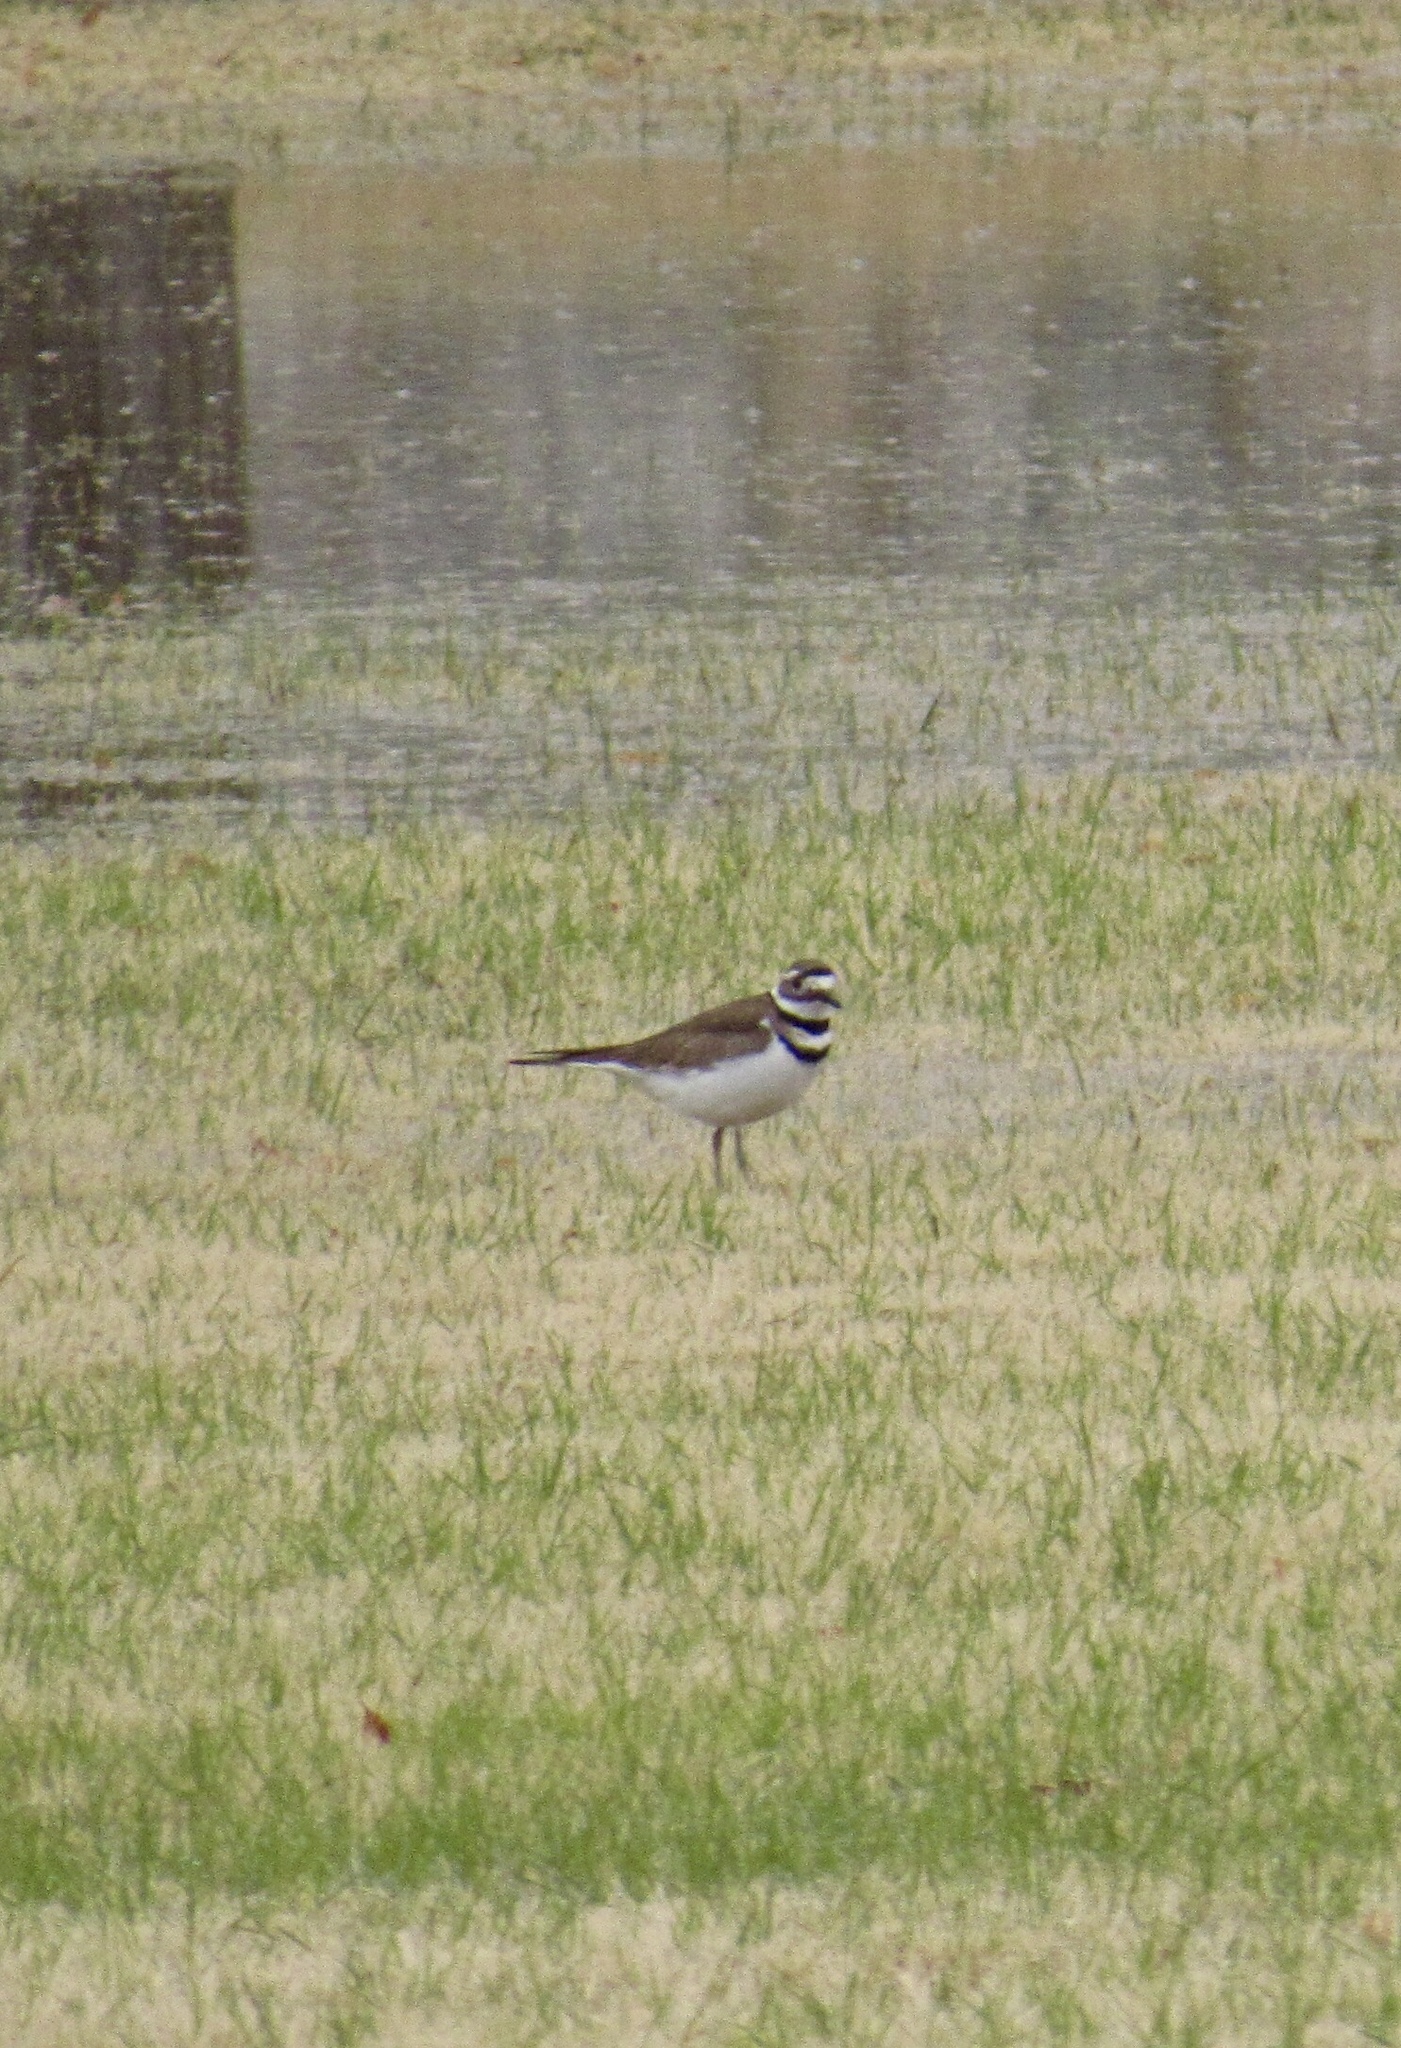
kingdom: Animalia
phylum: Chordata
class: Aves
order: Charadriiformes
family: Charadriidae
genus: Charadrius
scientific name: Charadrius vociferus
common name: Killdeer
